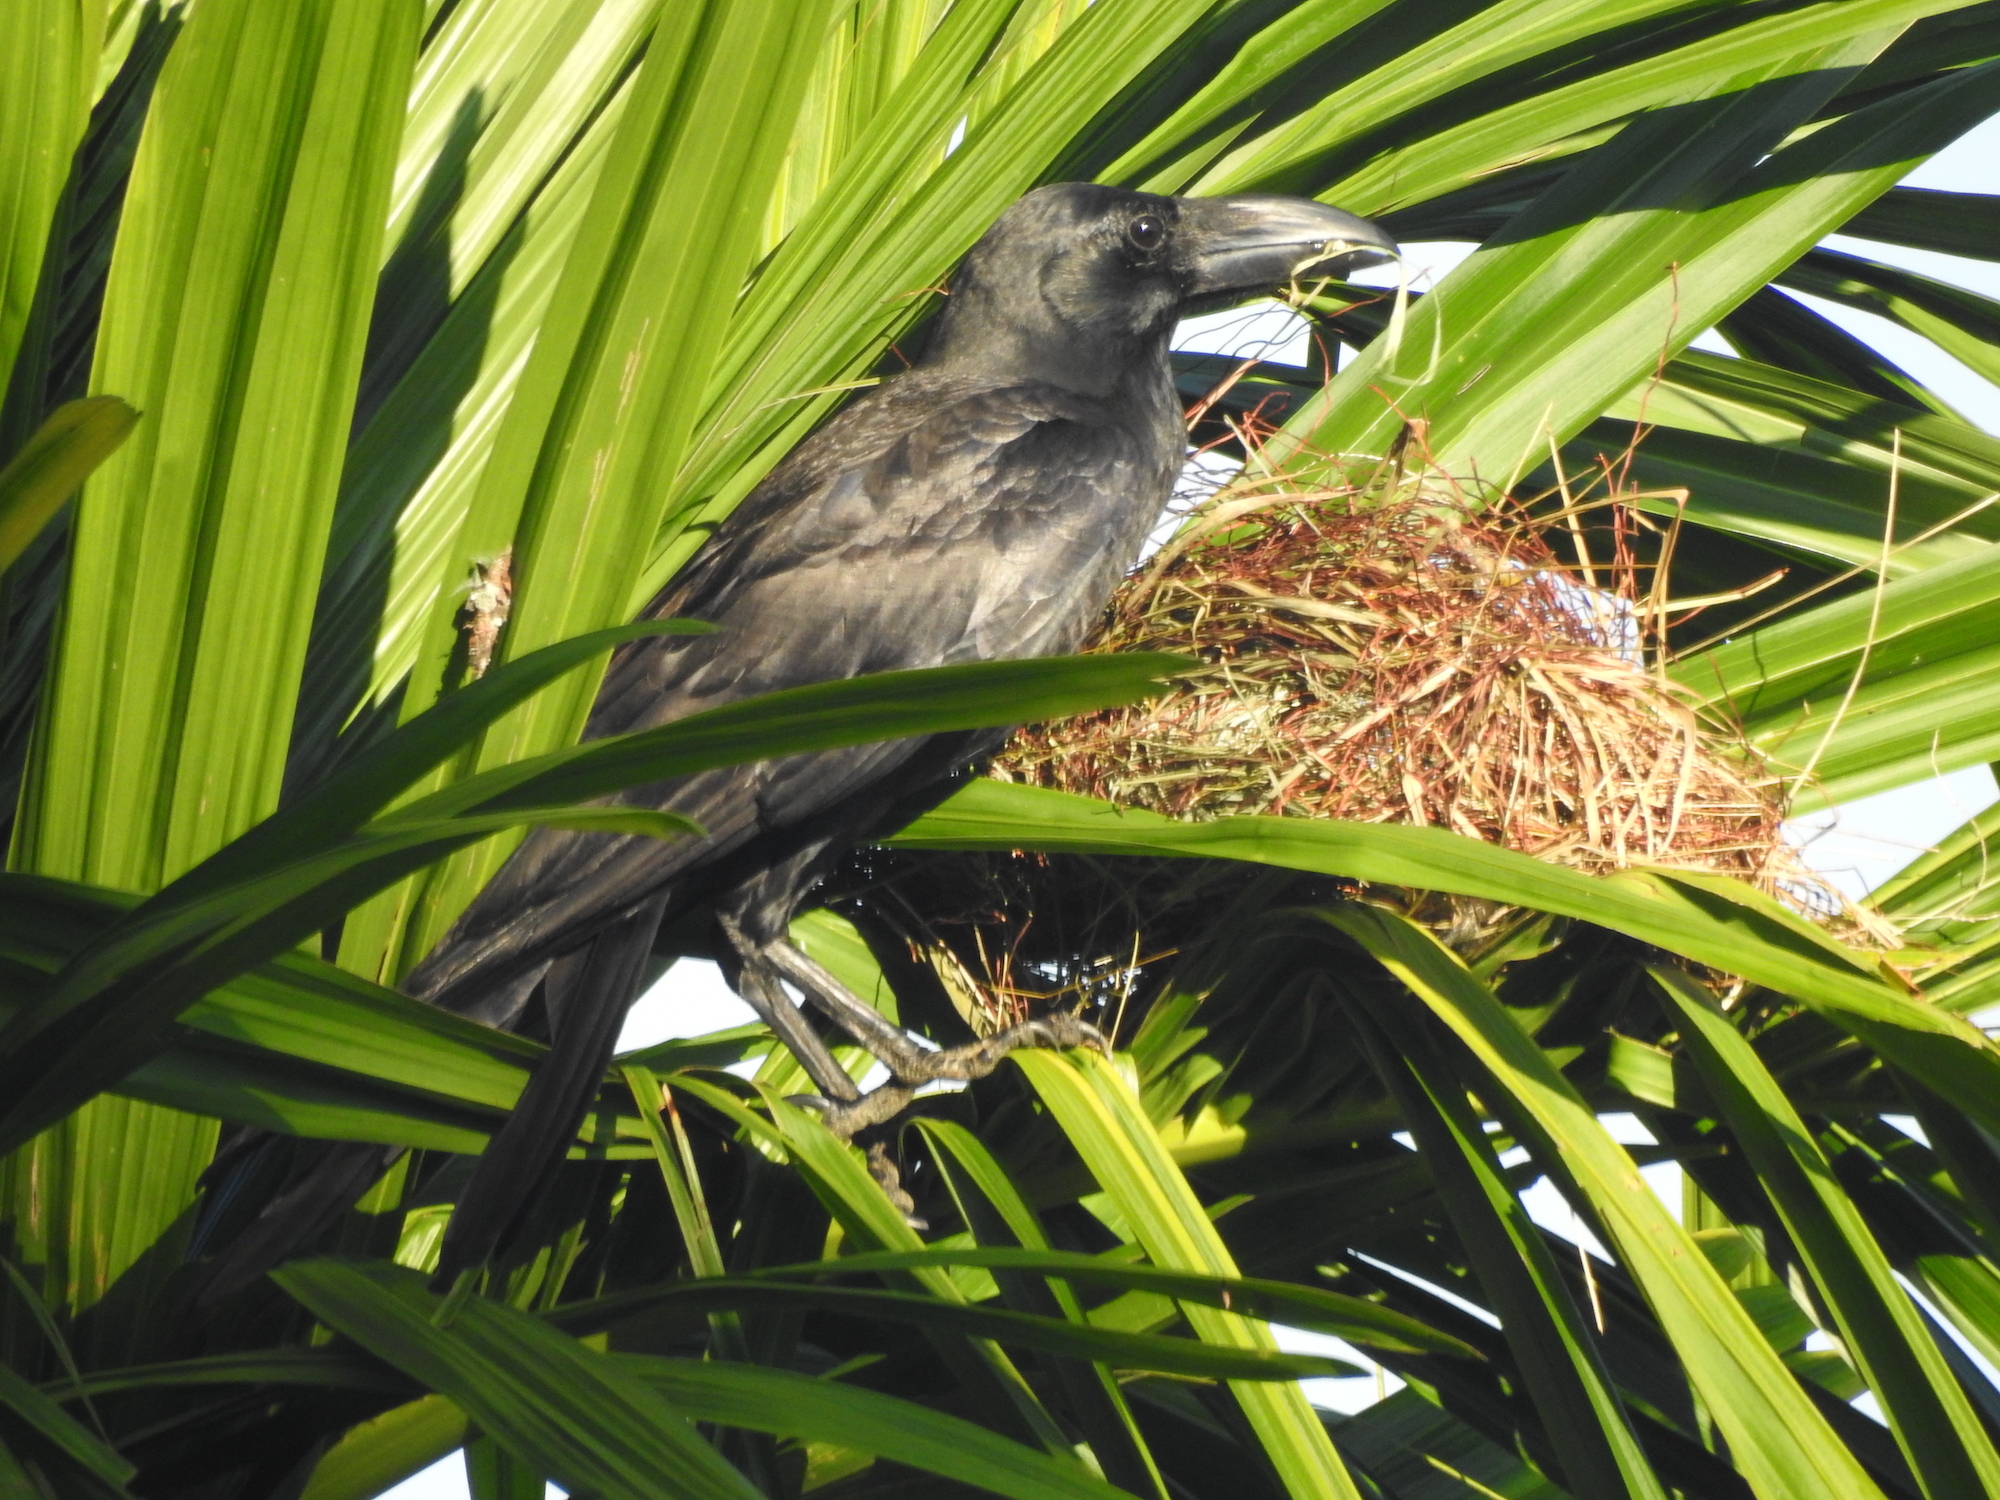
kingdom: Animalia
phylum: Chordata
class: Aves
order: Passeriformes
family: Corvidae
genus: Corvus
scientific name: Corvus macrorhynchos
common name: Large-billed crow
